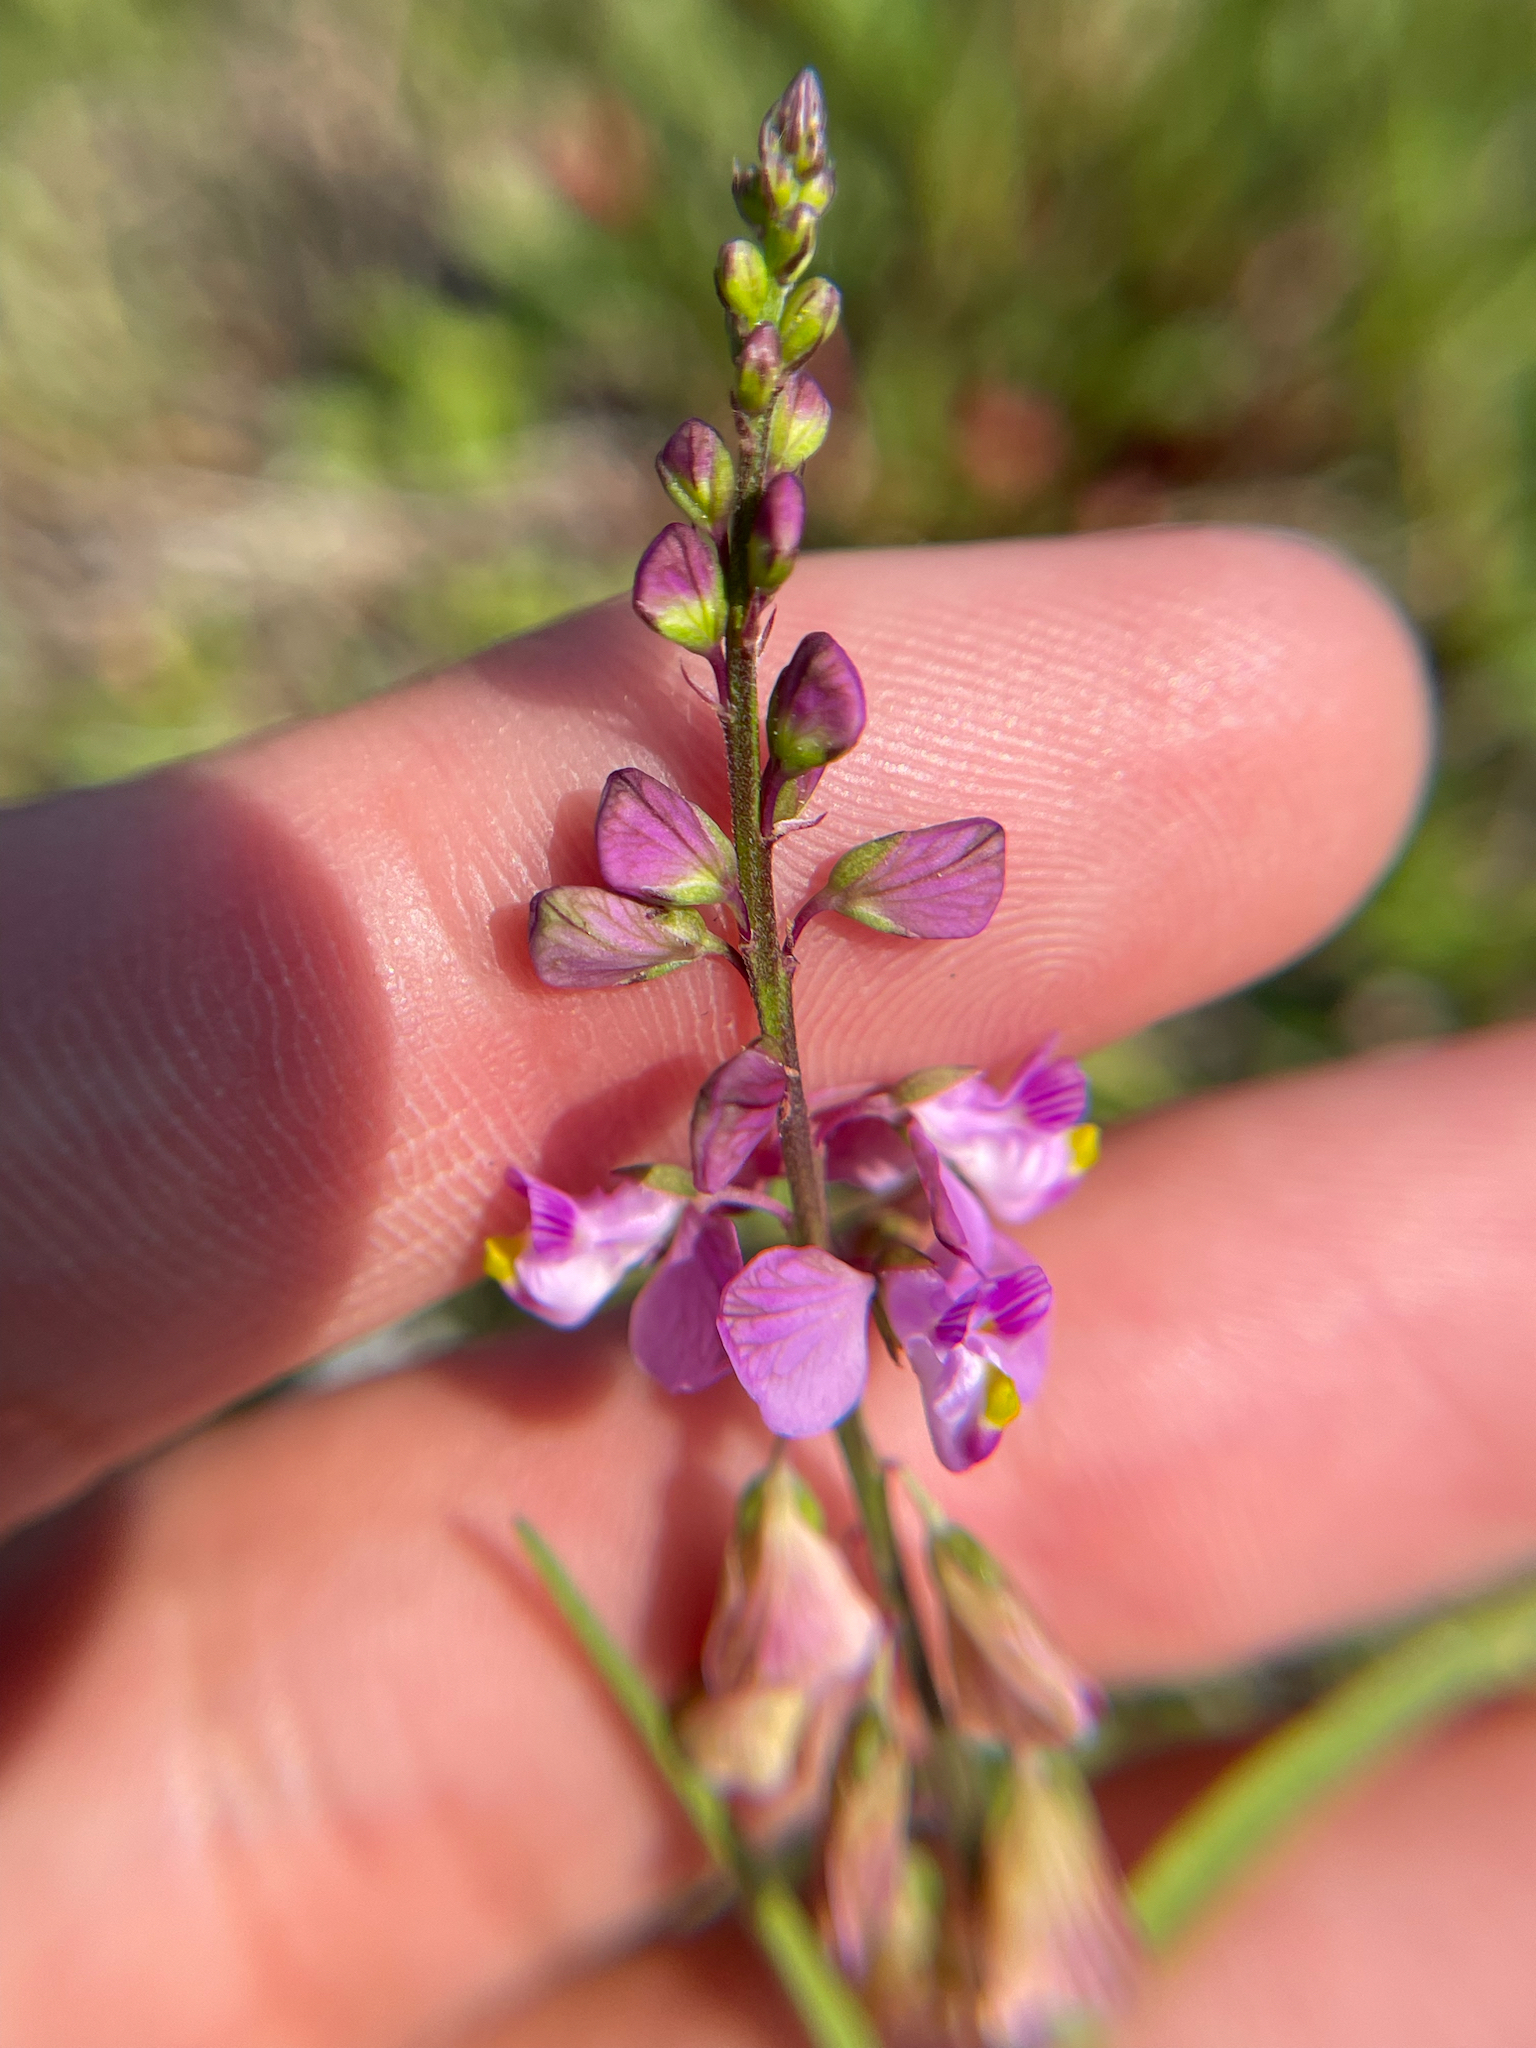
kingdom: Plantae
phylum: Tracheophyta
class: Magnoliopsida
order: Fabales
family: Polygalaceae
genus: Asemeia
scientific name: Asemeia grandiflora
